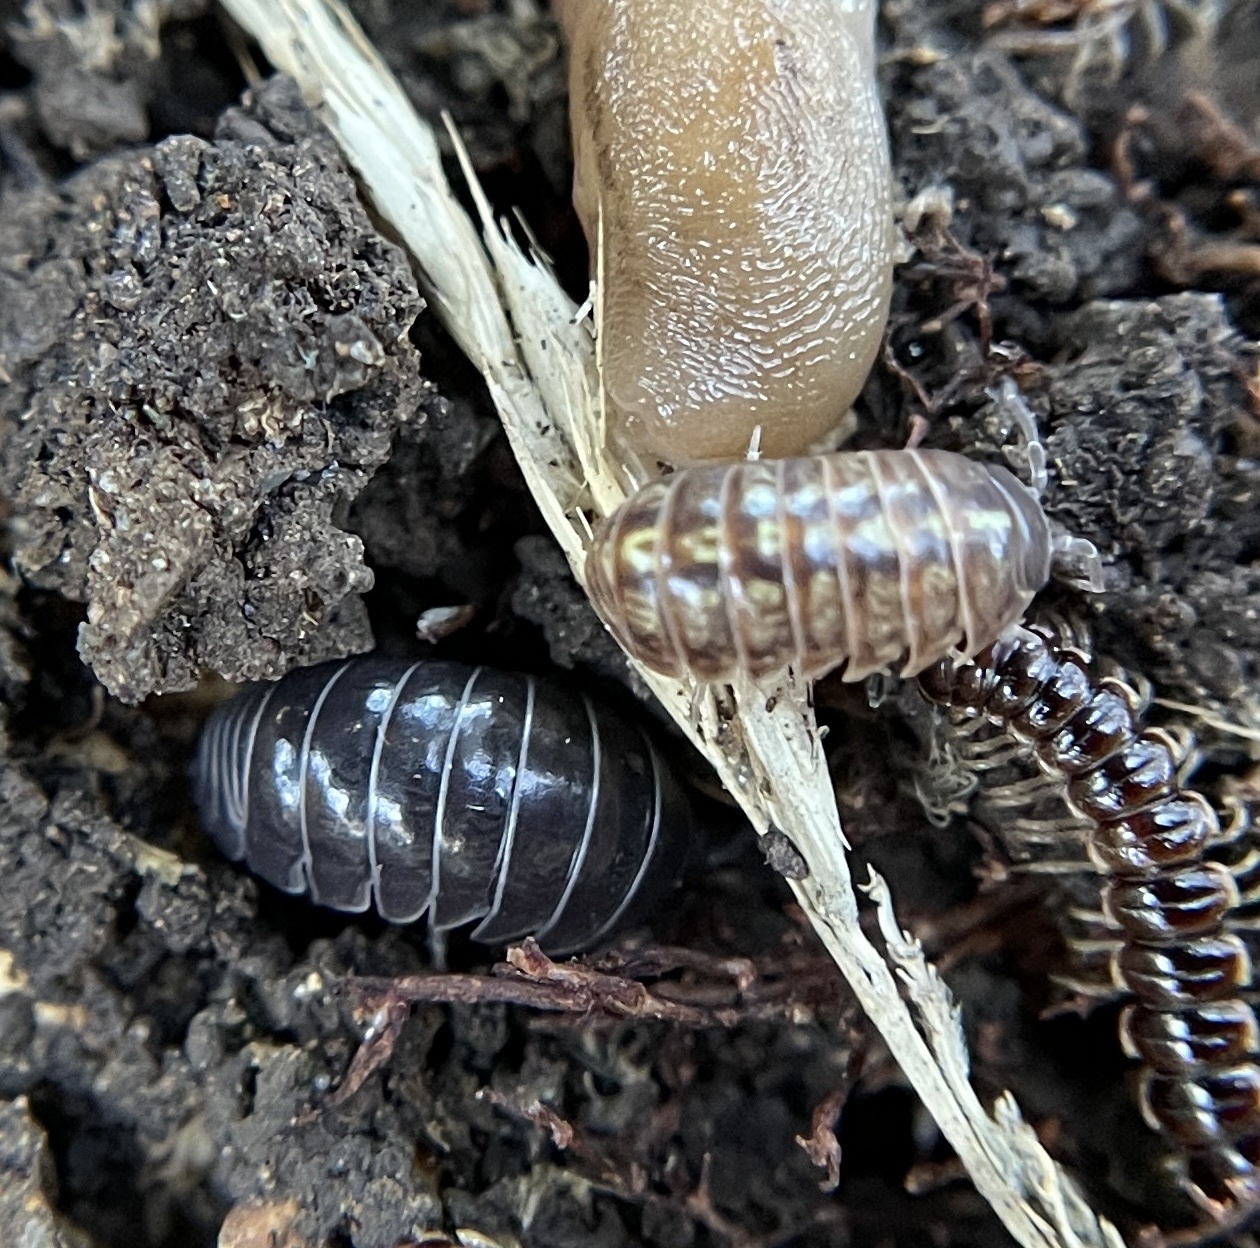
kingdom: Animalia
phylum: Arthropoda
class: Malacostraca
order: Isopoda
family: Armadillidiidae
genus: Armadillidium
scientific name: Armadillidium vulgare
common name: Common pill woodlouse
